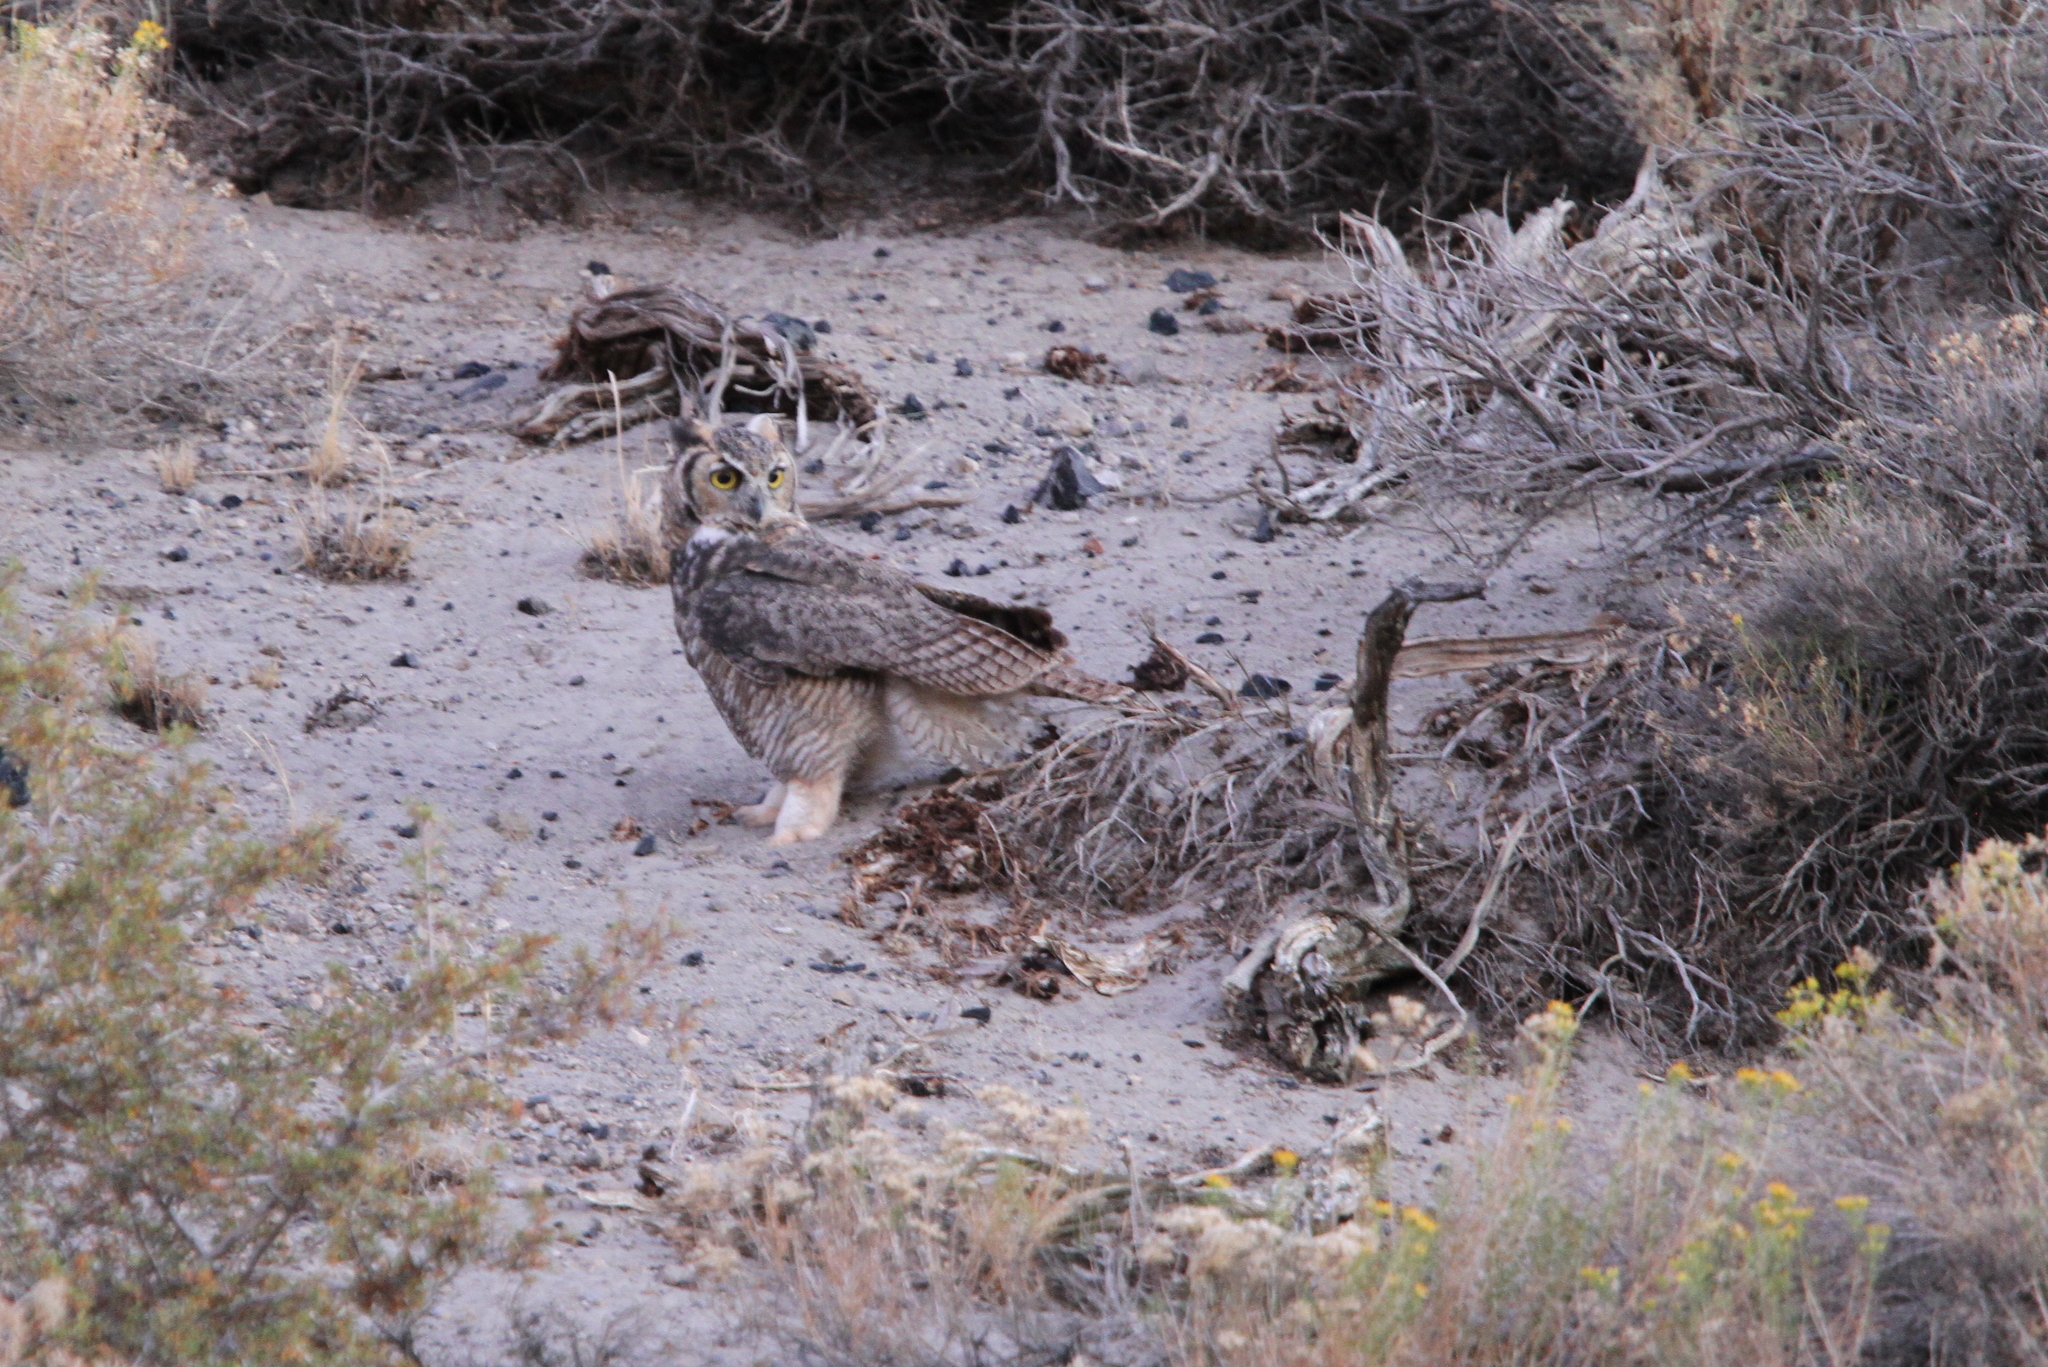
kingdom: Animalia
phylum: Chordata
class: Aves
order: Strigiformes
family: Strigidae
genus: Bubo
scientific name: Bubo virginianus
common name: Great horned owl
